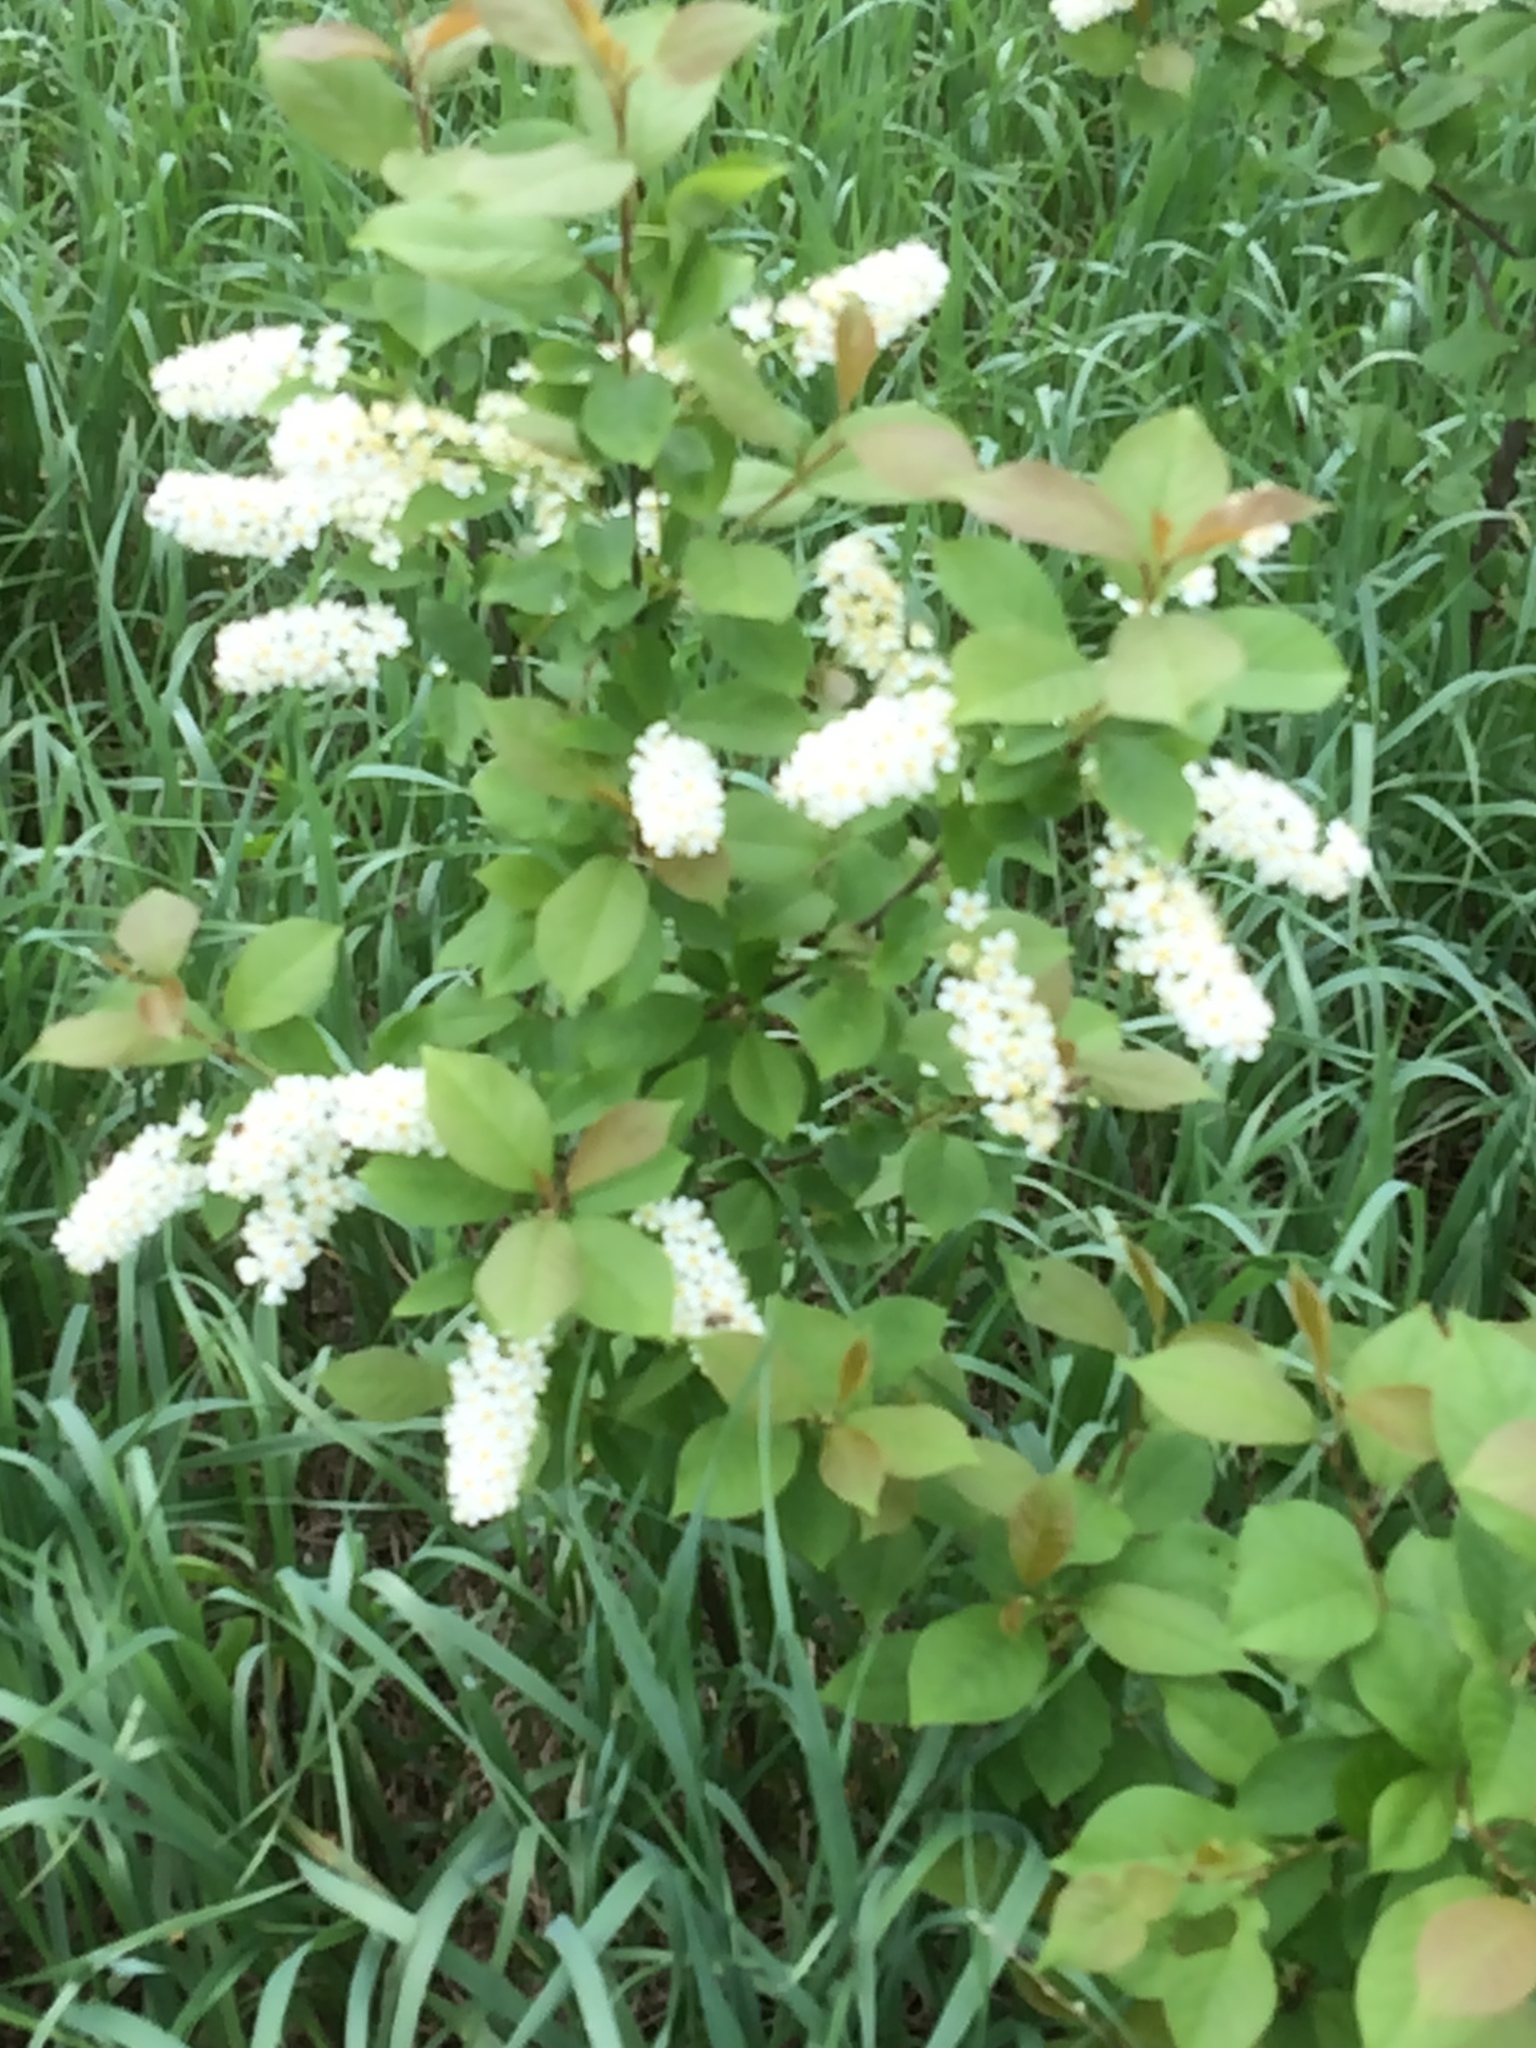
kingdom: Plantae
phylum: Tracheophyta
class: Magnoliopsida
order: Rosales
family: Rosaceae
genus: Prunus
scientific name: Prunus virginiana
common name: Chokecherry
